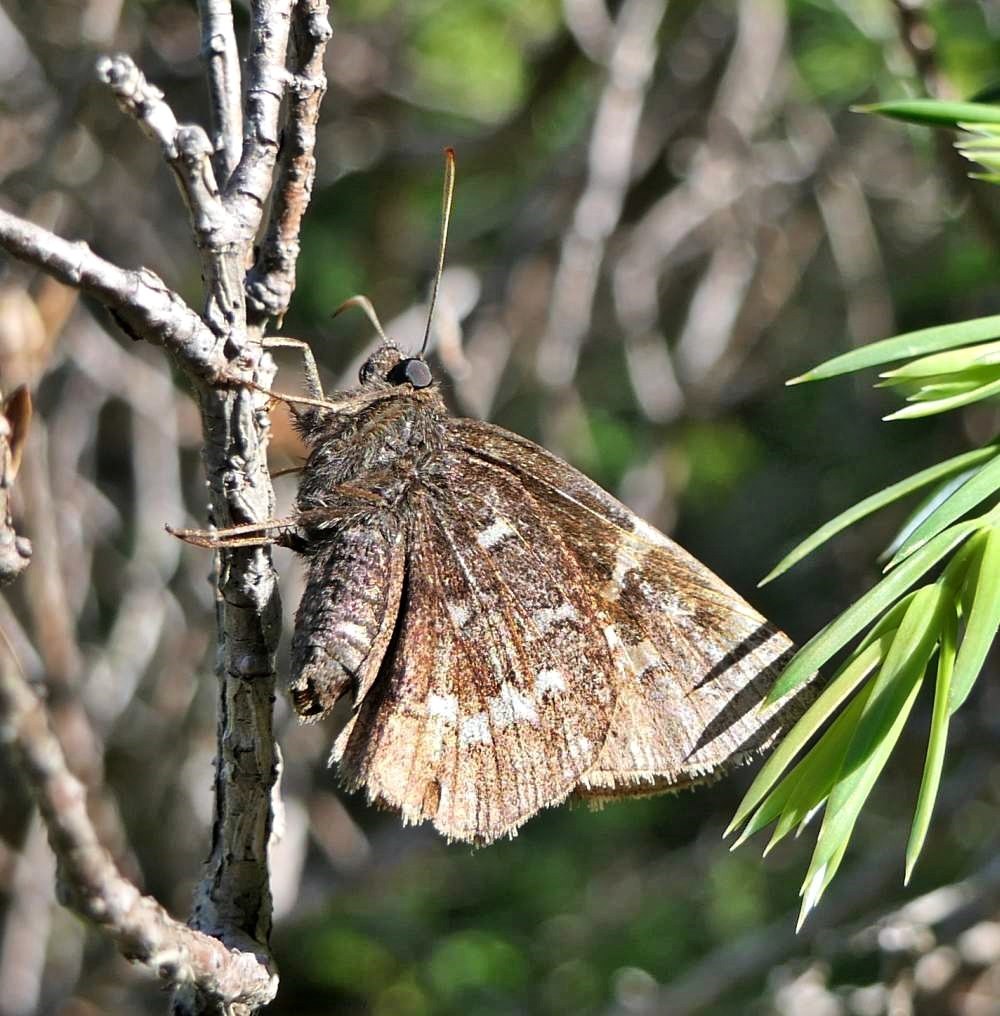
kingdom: Animalia
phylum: Arthropoda
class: Insecta
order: Lepidoptera
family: Hesperiidae
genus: Thorybes
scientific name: Thorybes pylades
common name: Northern cloudywing
